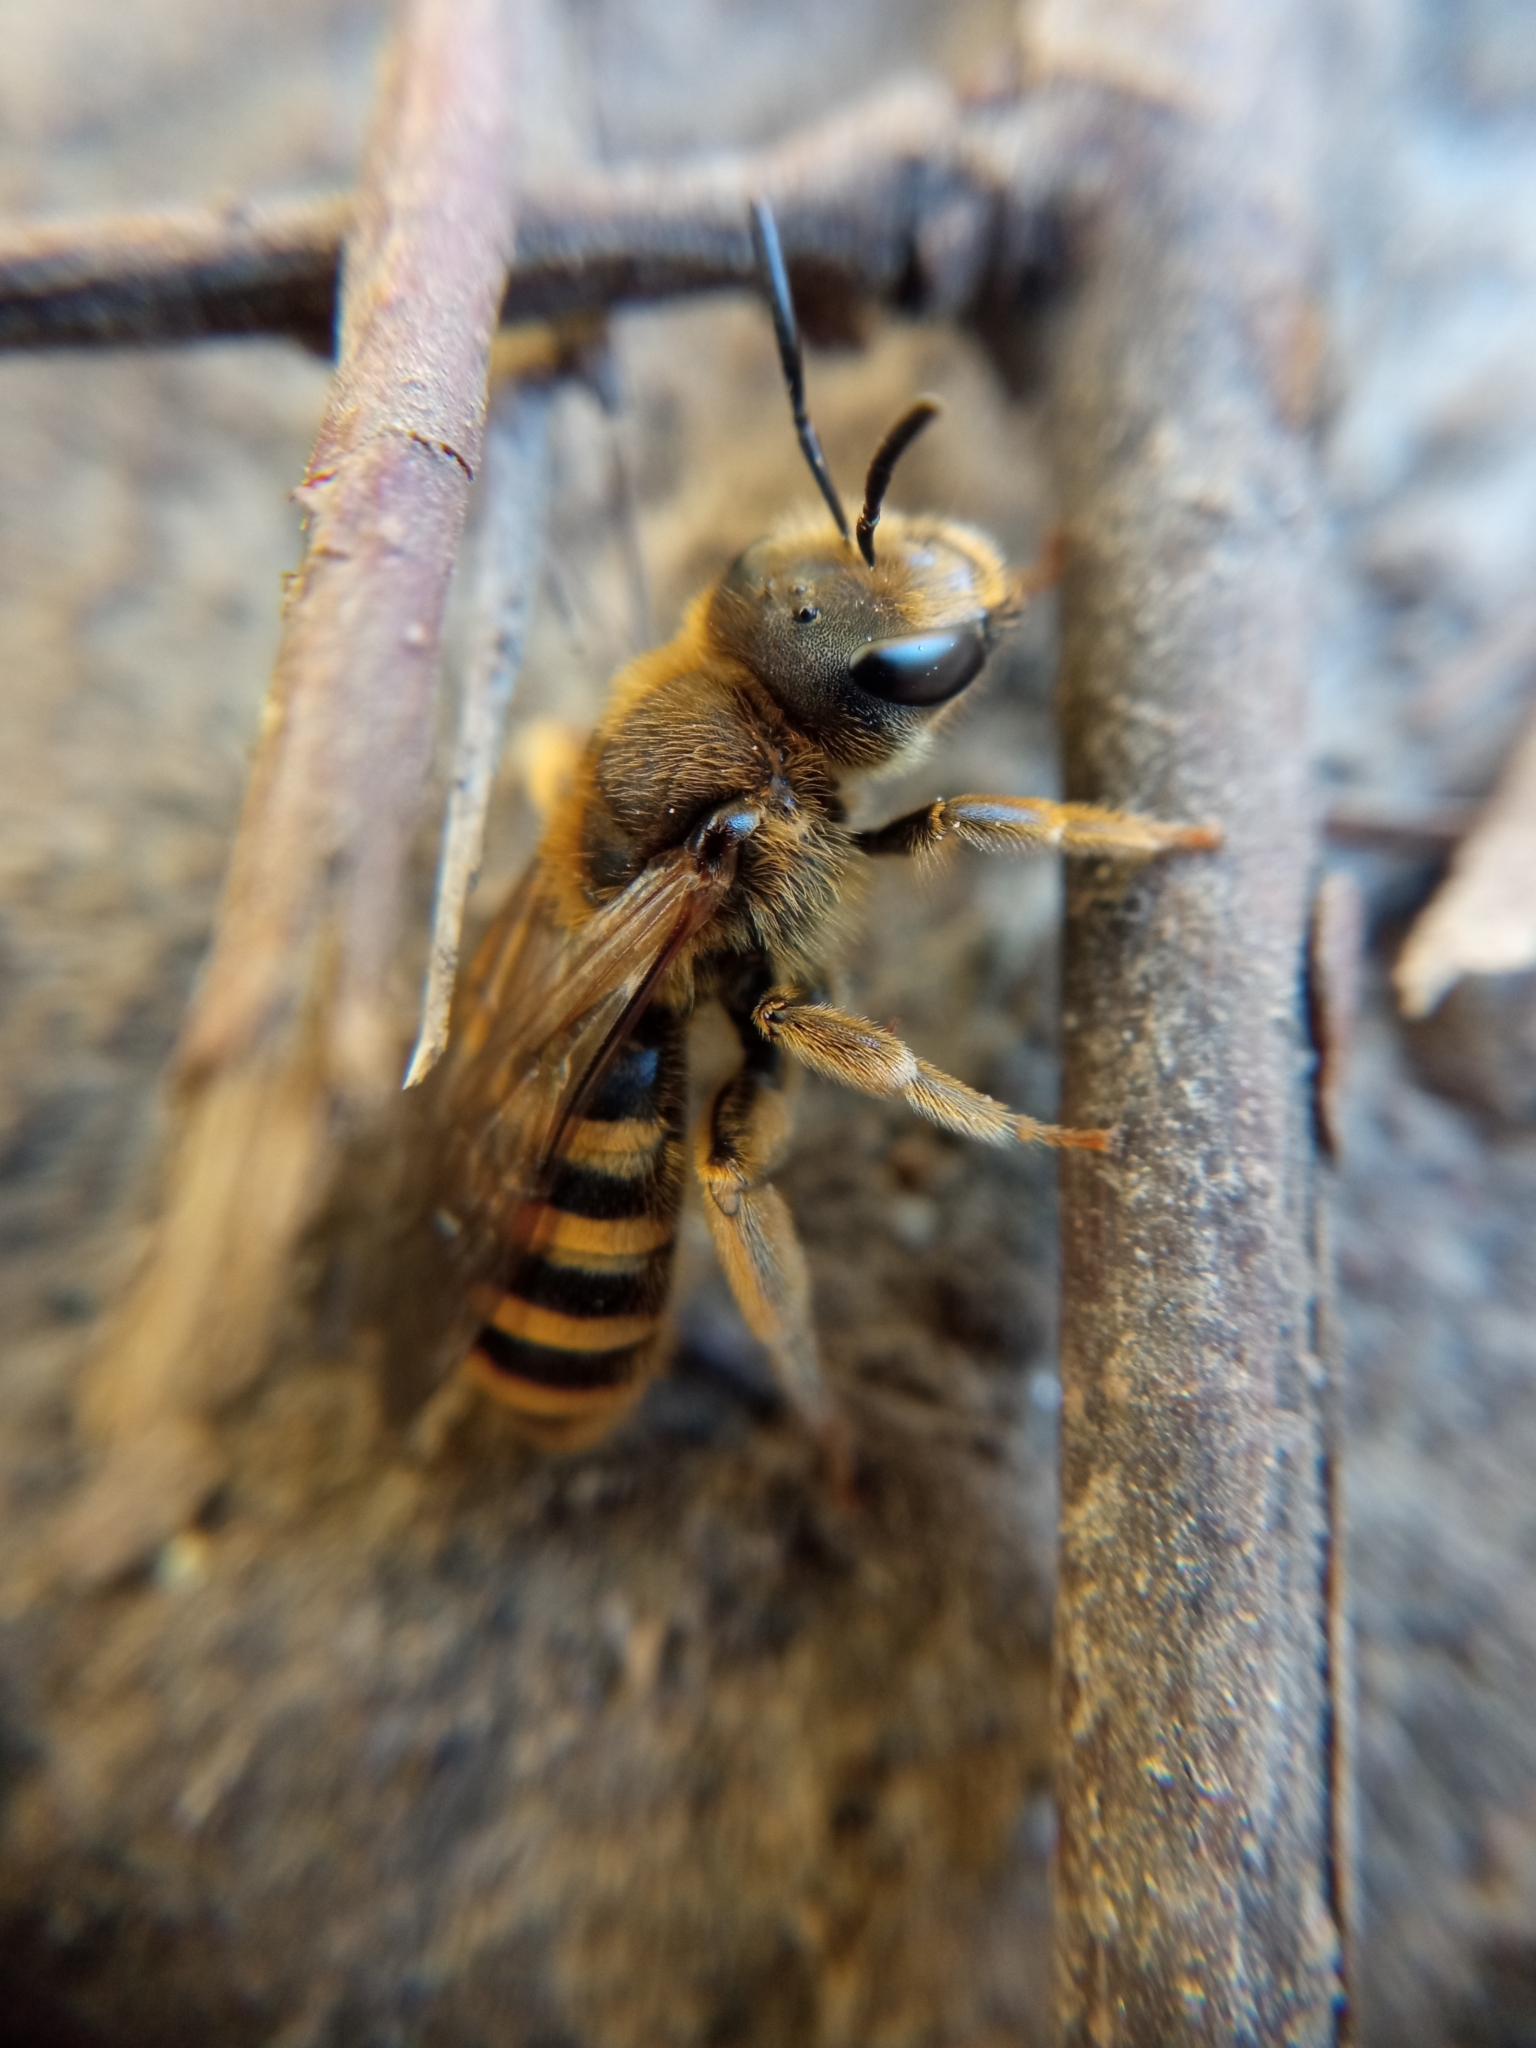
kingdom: Animalia
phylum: Arthropoda
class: Insecta
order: Hymenoptera
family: Halictidae
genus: Halictus
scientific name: Halictus scabiosae
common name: Great banded furrow bee
